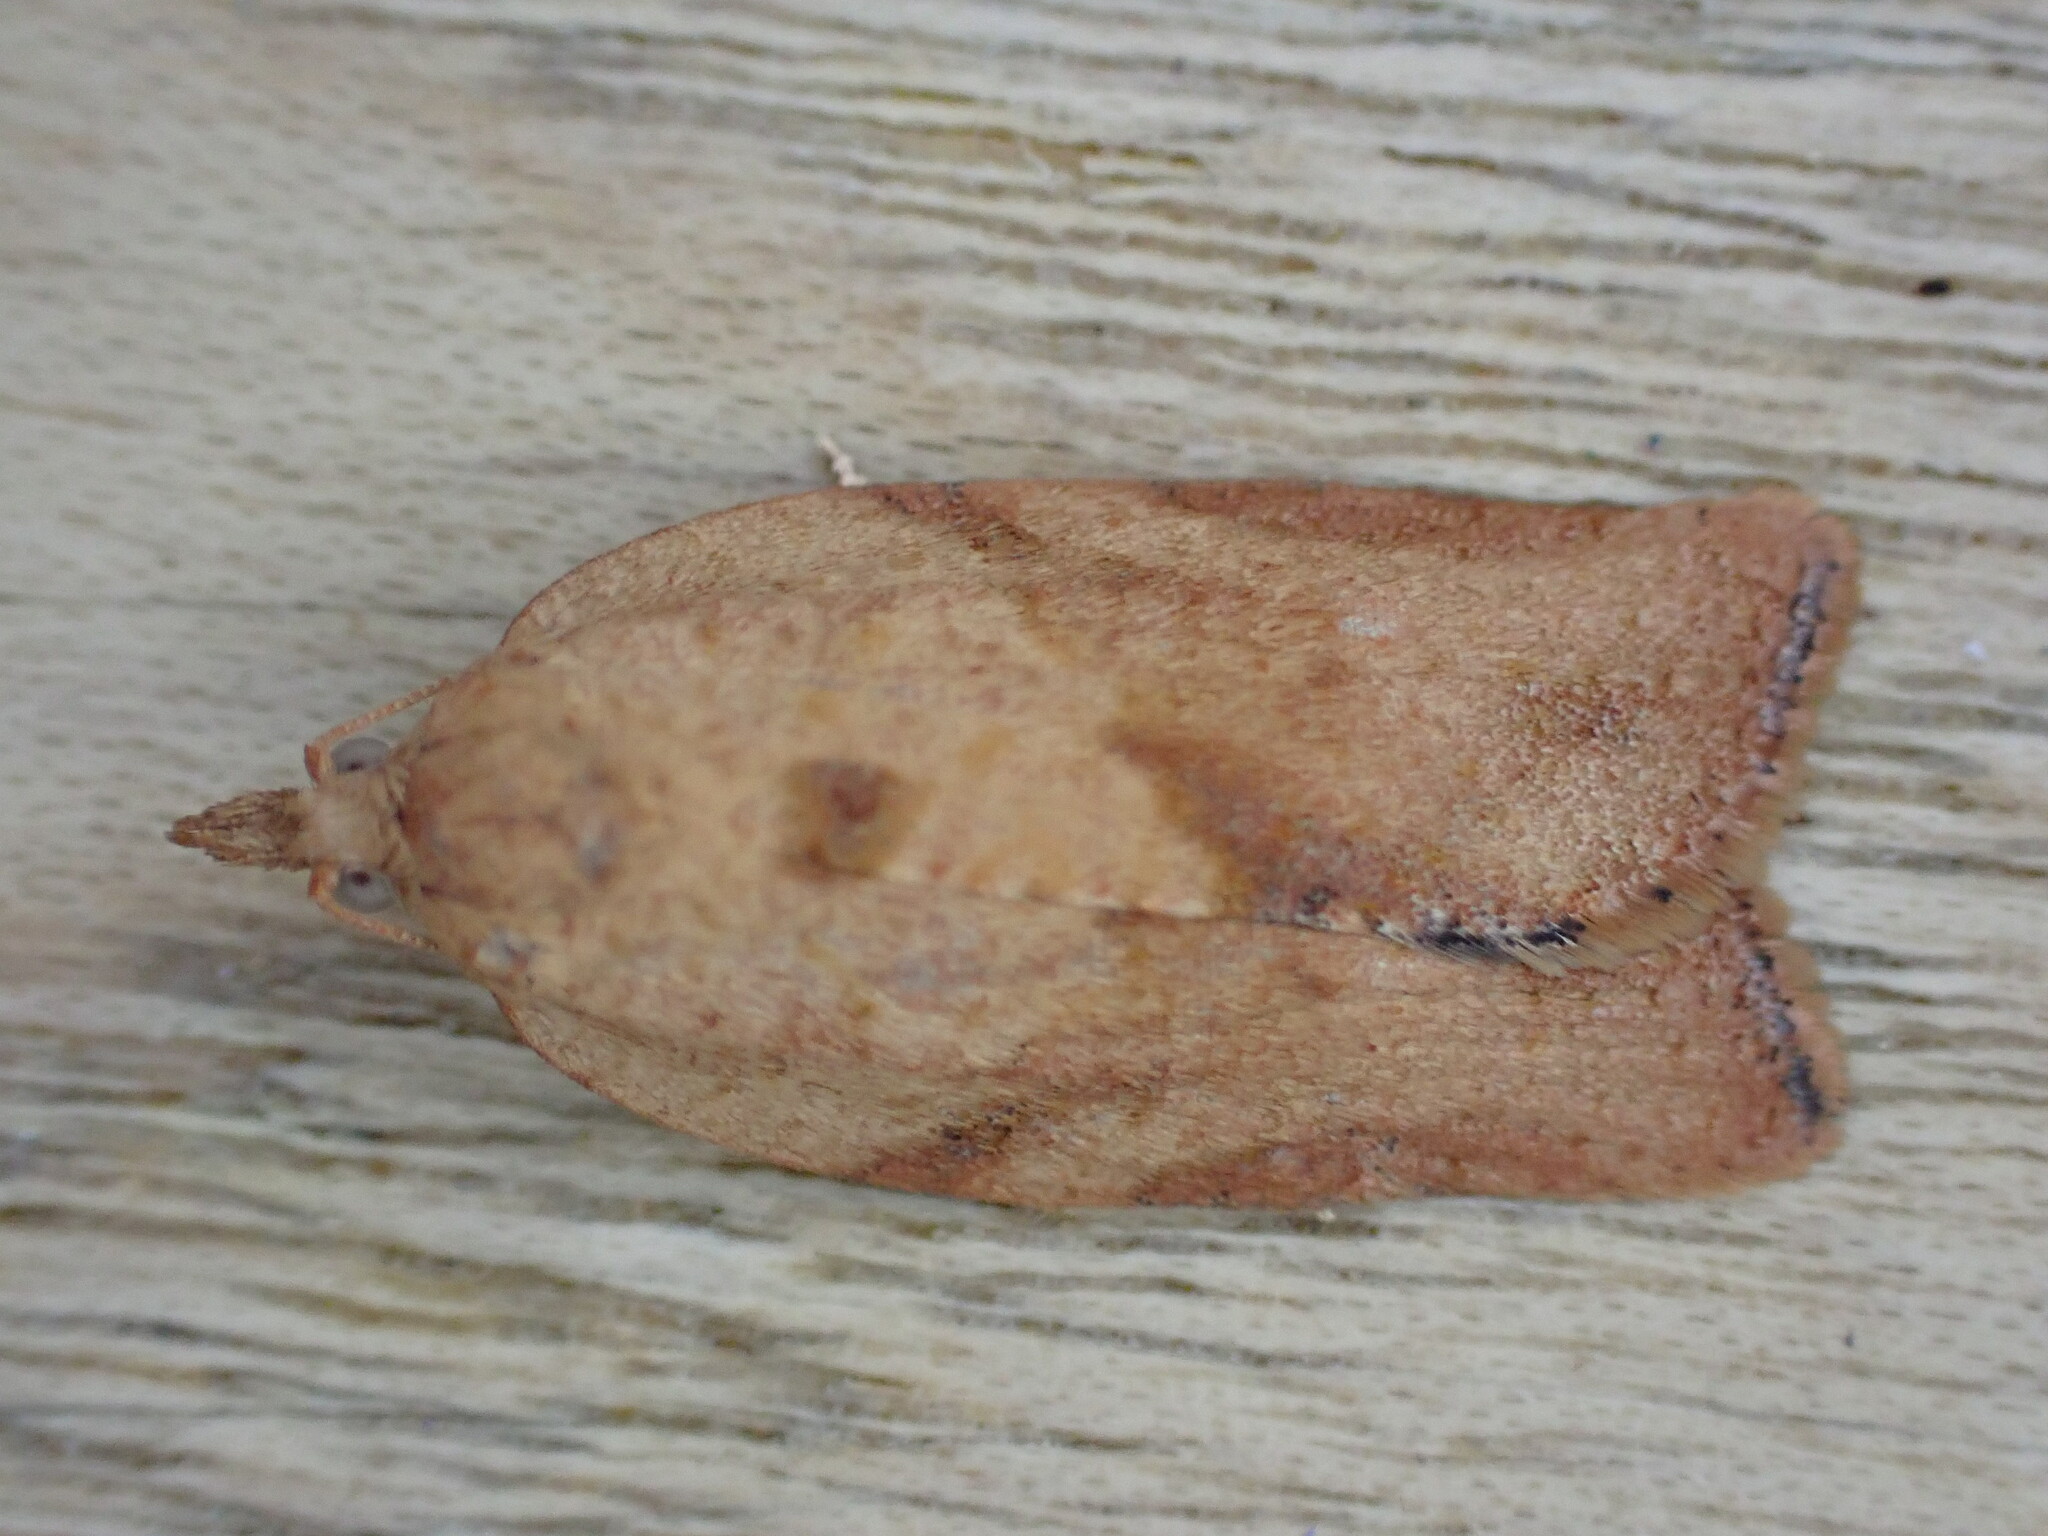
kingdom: Animalia
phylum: Arthropoda
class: Insecta
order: Lepidoptera
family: Tortricidae
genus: Epiphyas
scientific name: Epiphyas postvittana
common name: Light brown apple moth
